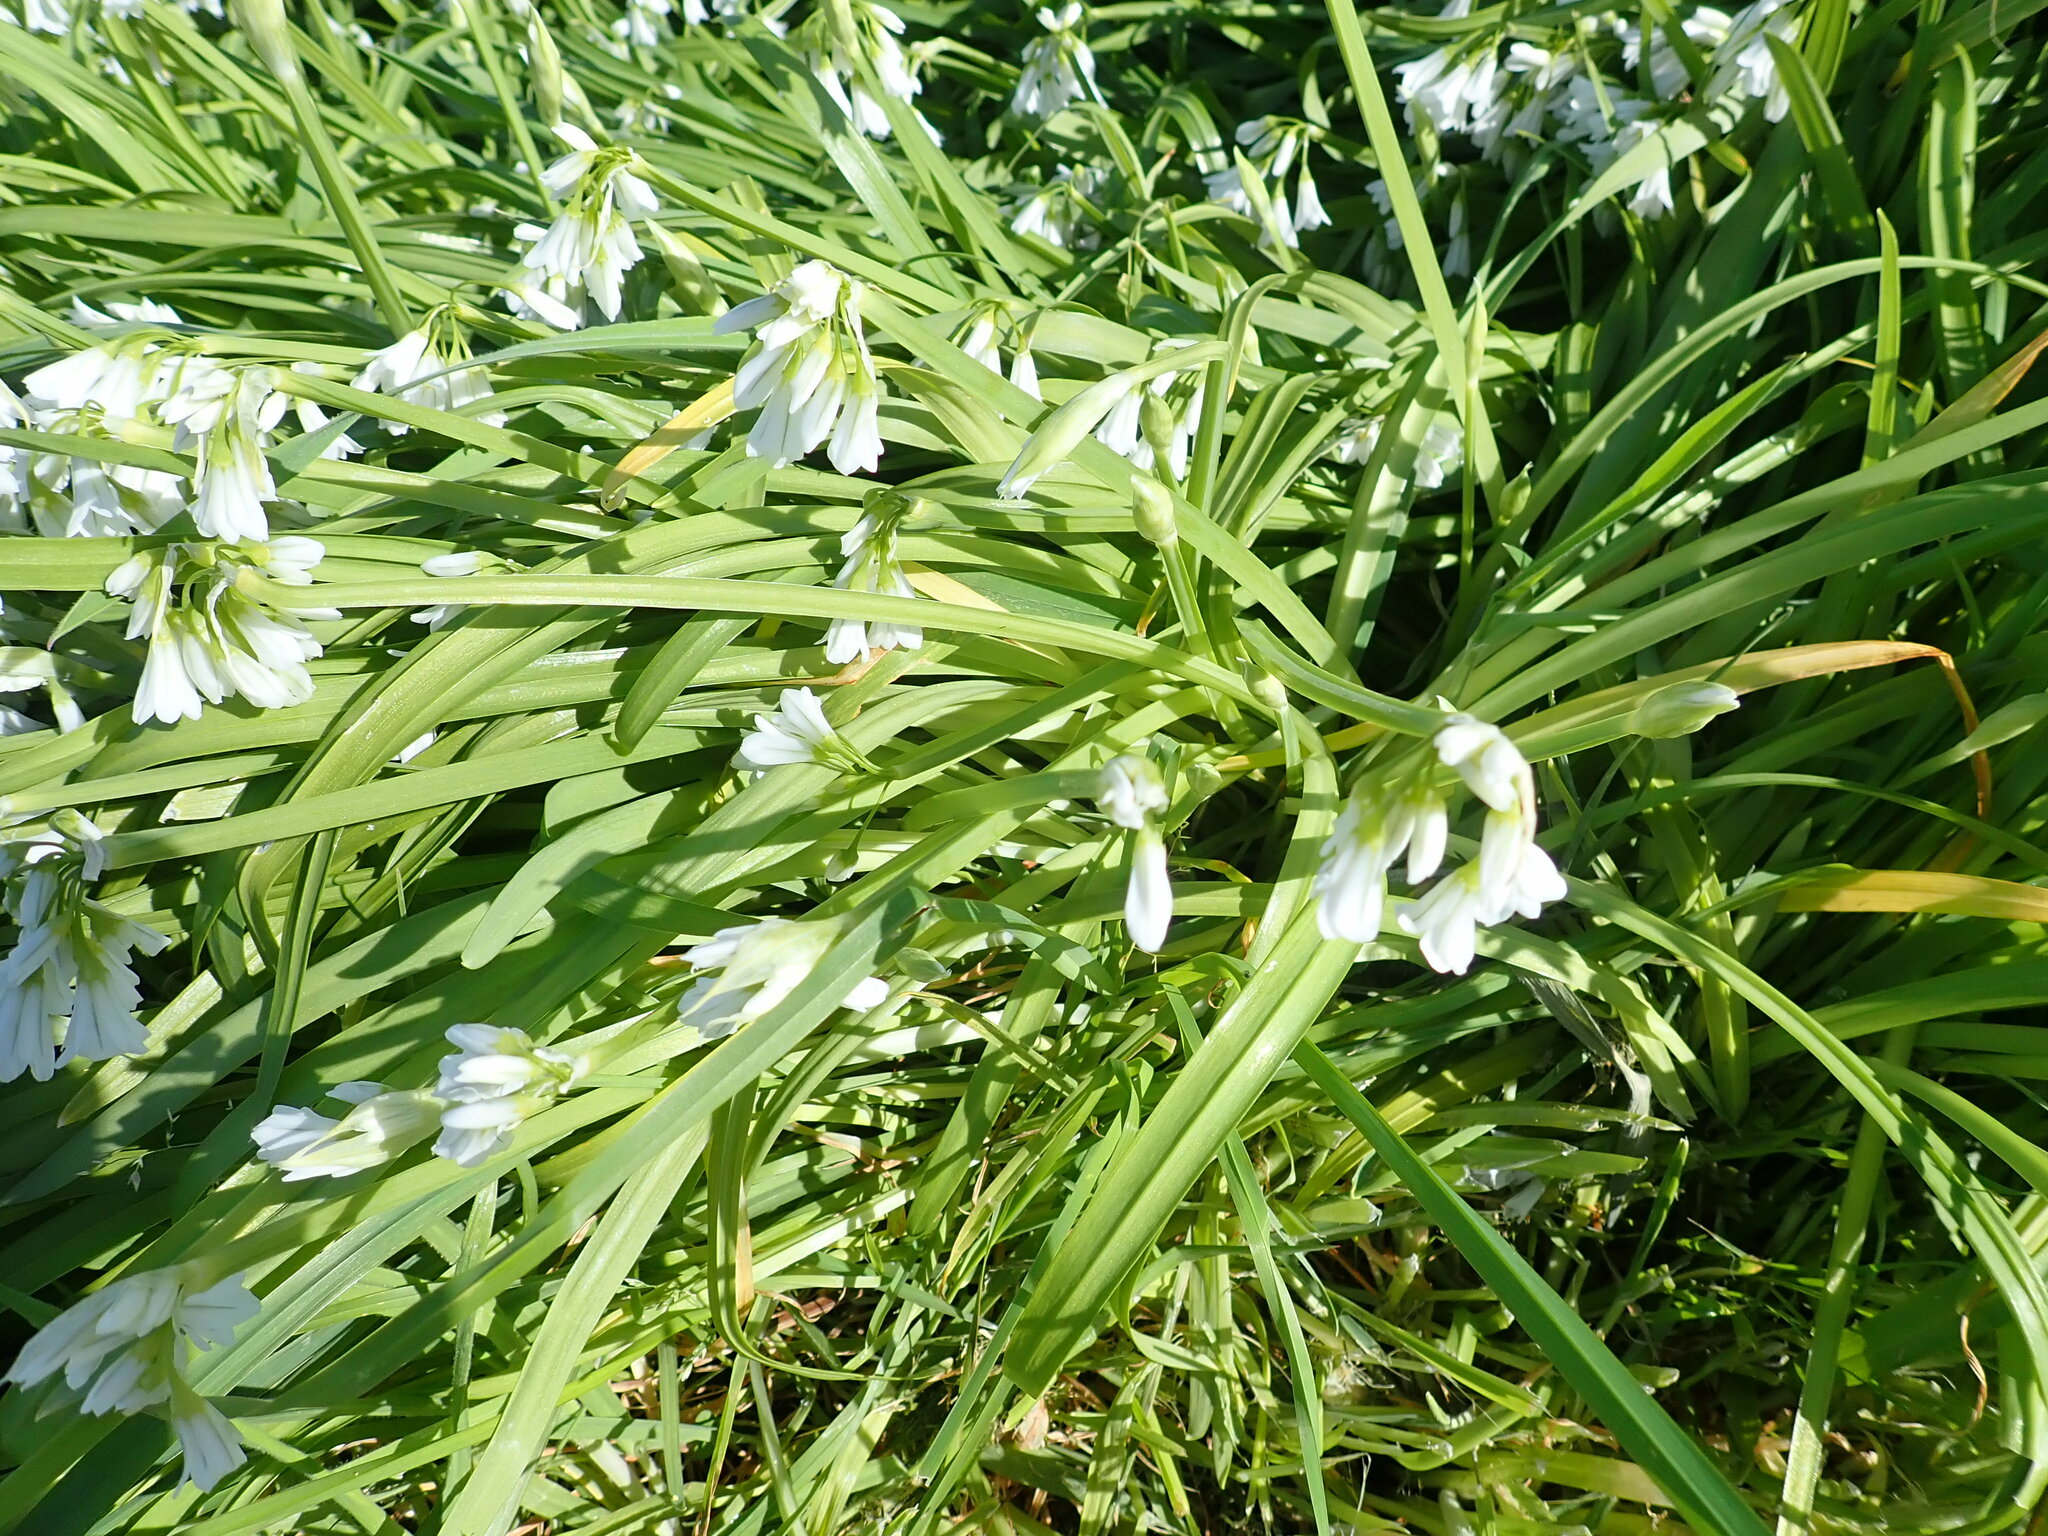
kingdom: Plantae
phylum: Tracheophyta
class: Liliopsida
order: Asparagales
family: Amaryllidaceae
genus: Allium
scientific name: Allium triquetrum
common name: Three-cornered garlic
